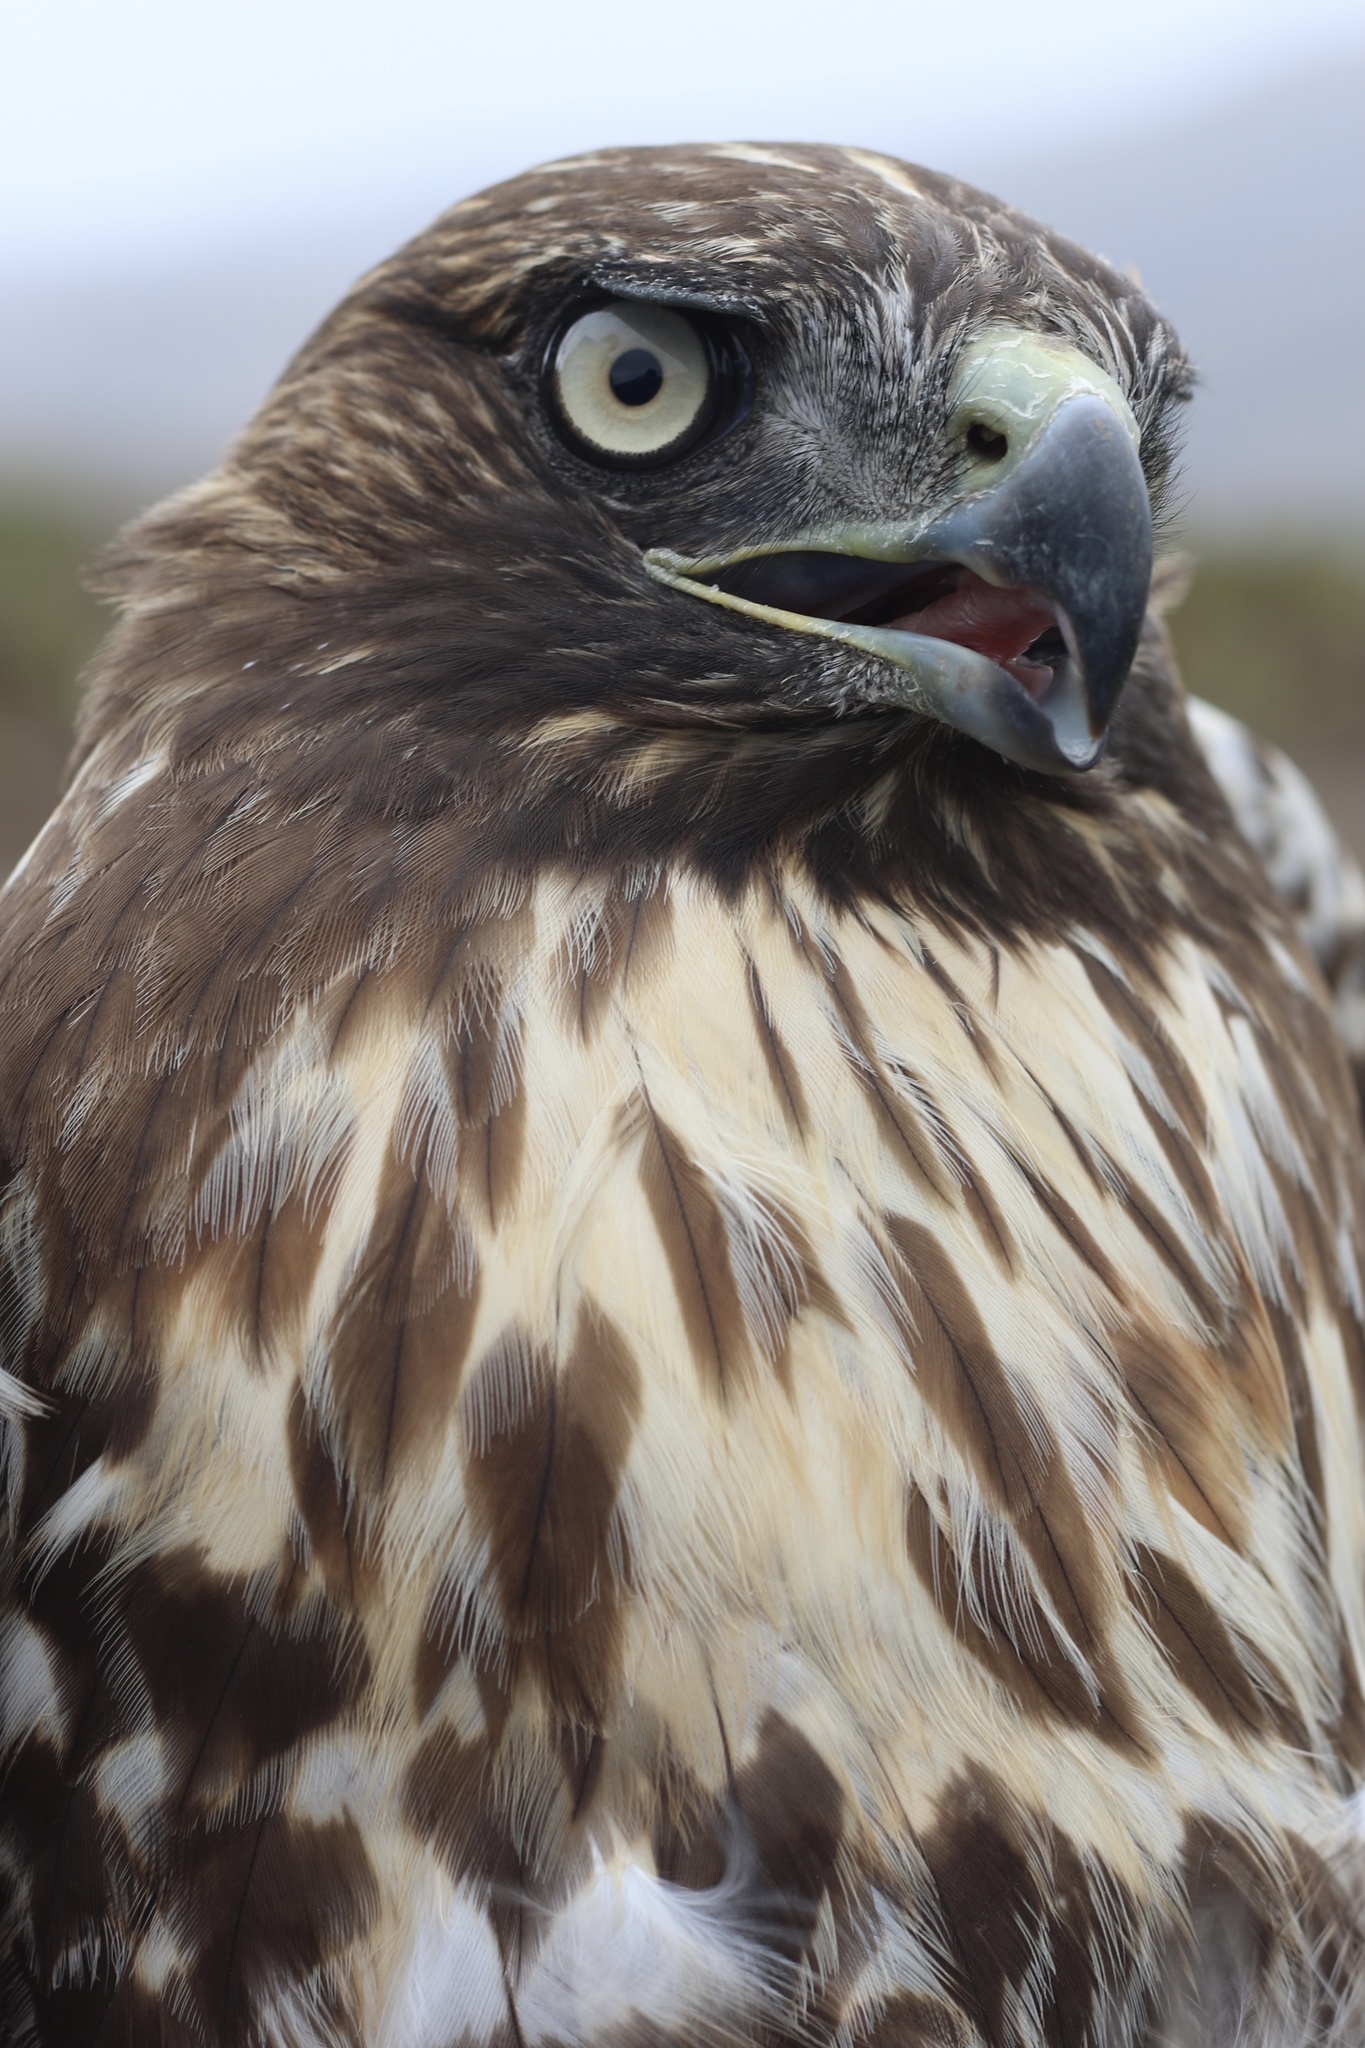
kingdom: Animalia
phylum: Chordata
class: Aves
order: Accipitriformes
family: Accipitridae
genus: Buteo
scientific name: Buteo jamaicensis
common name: Red-tailed hawk
